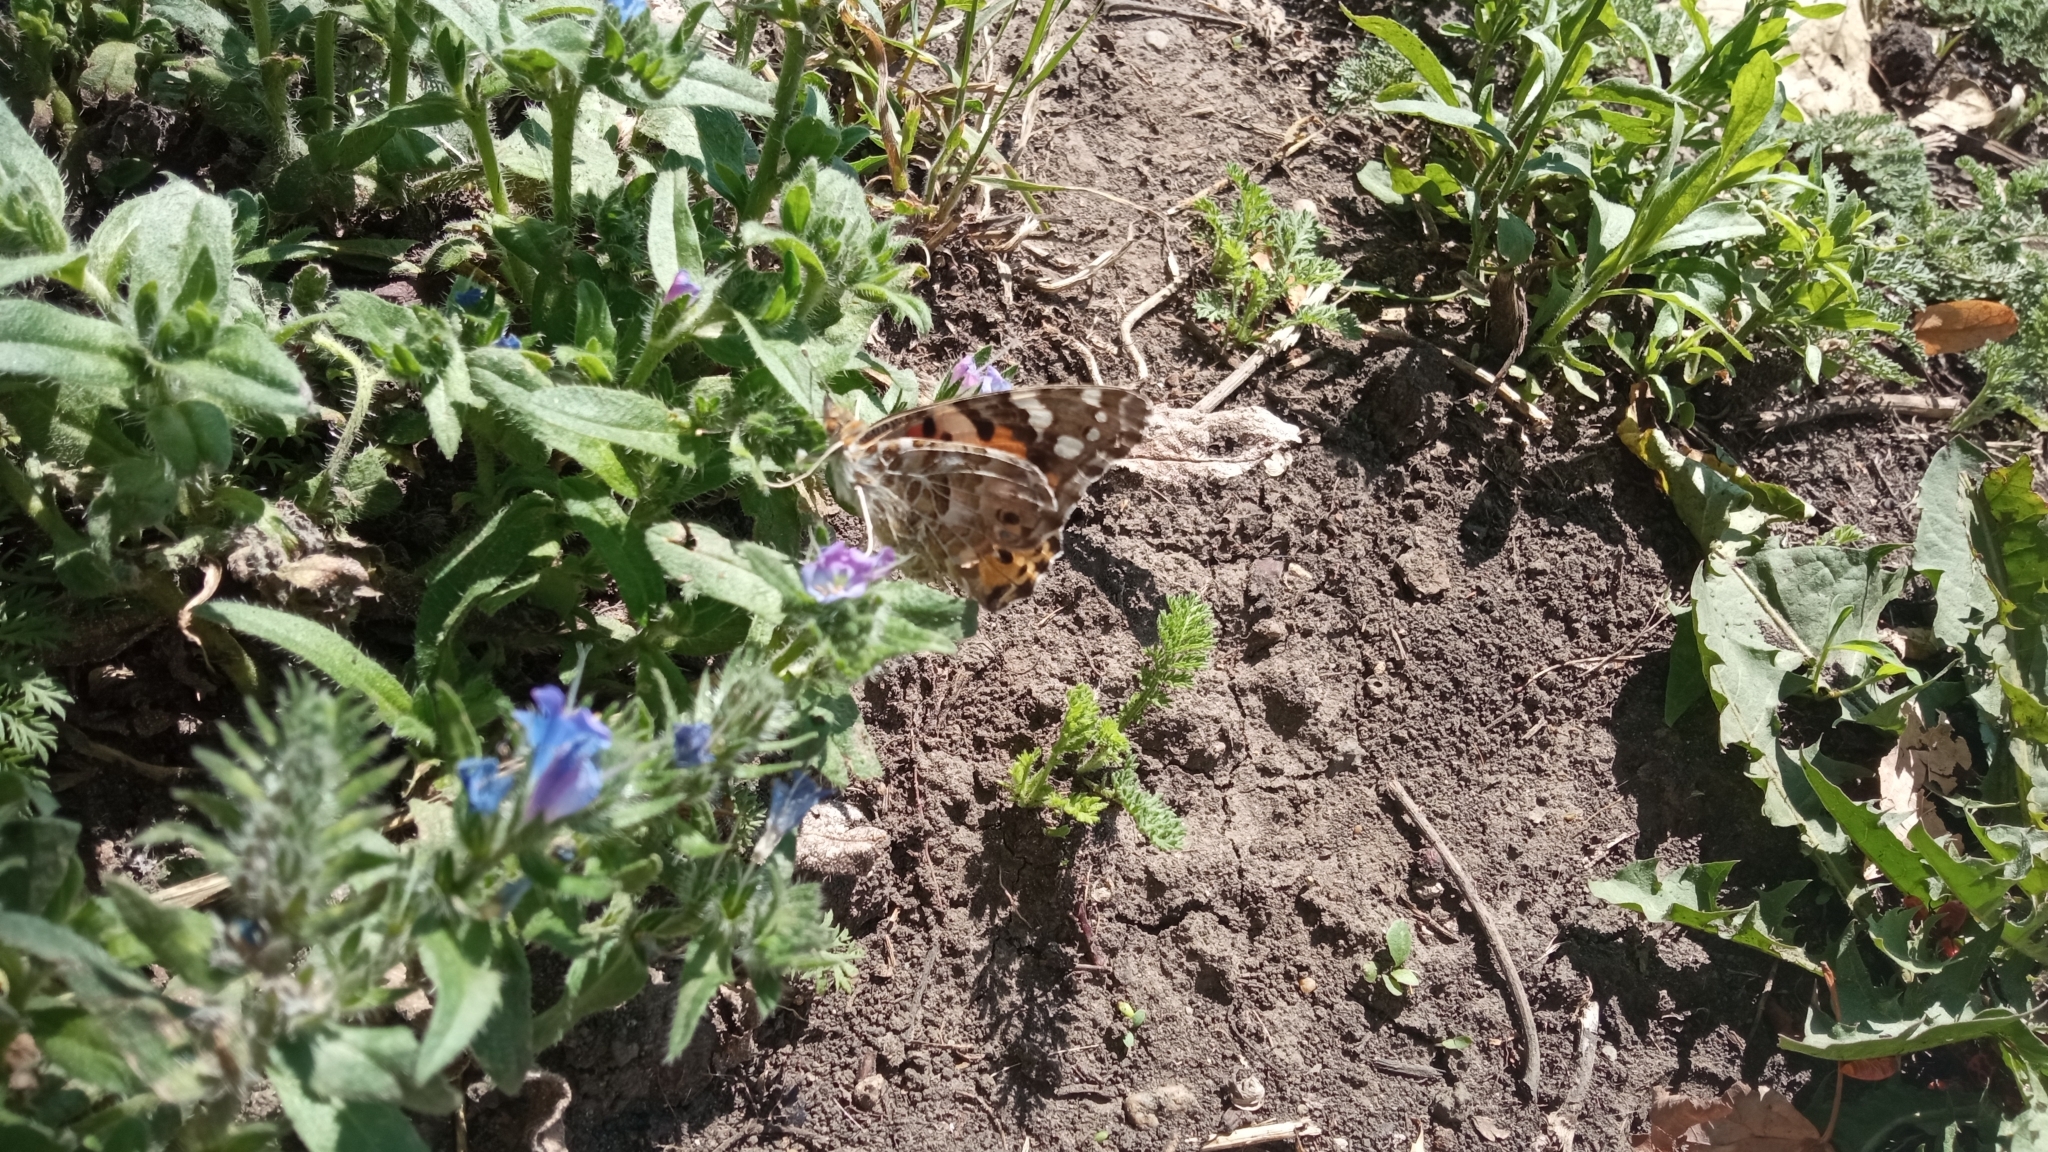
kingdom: Animalia
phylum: Arthropoda
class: Insecta
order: Lepidoptera
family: Nymphalidae
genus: Vanessa
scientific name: Vanessa cardui
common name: Painted lady
